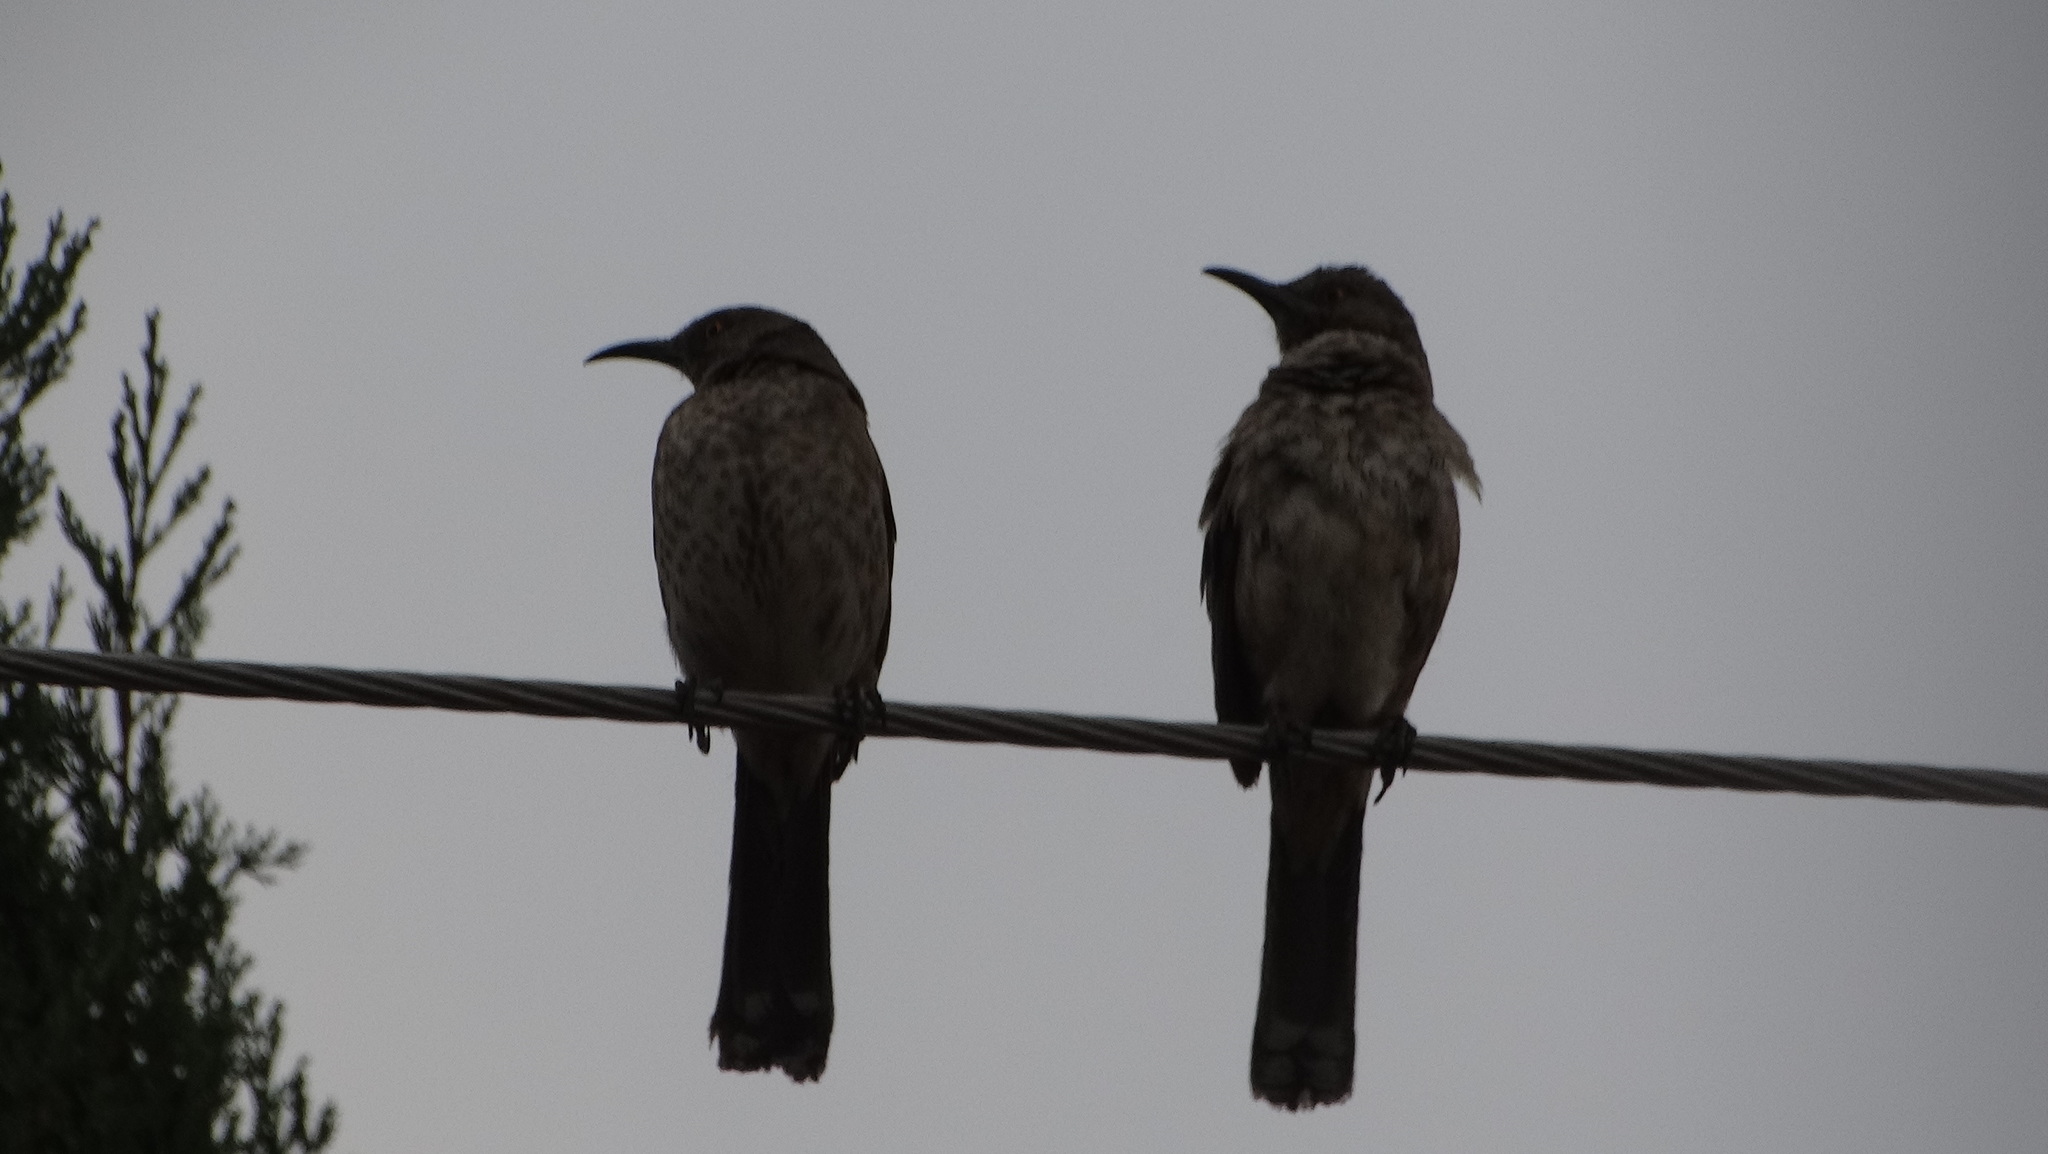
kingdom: Animalia
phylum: Chordata
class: Aves
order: Passeriformes
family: Mimidae
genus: Toxostoma
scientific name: Toxostoma curvirostre
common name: Curve-billed thrasher
